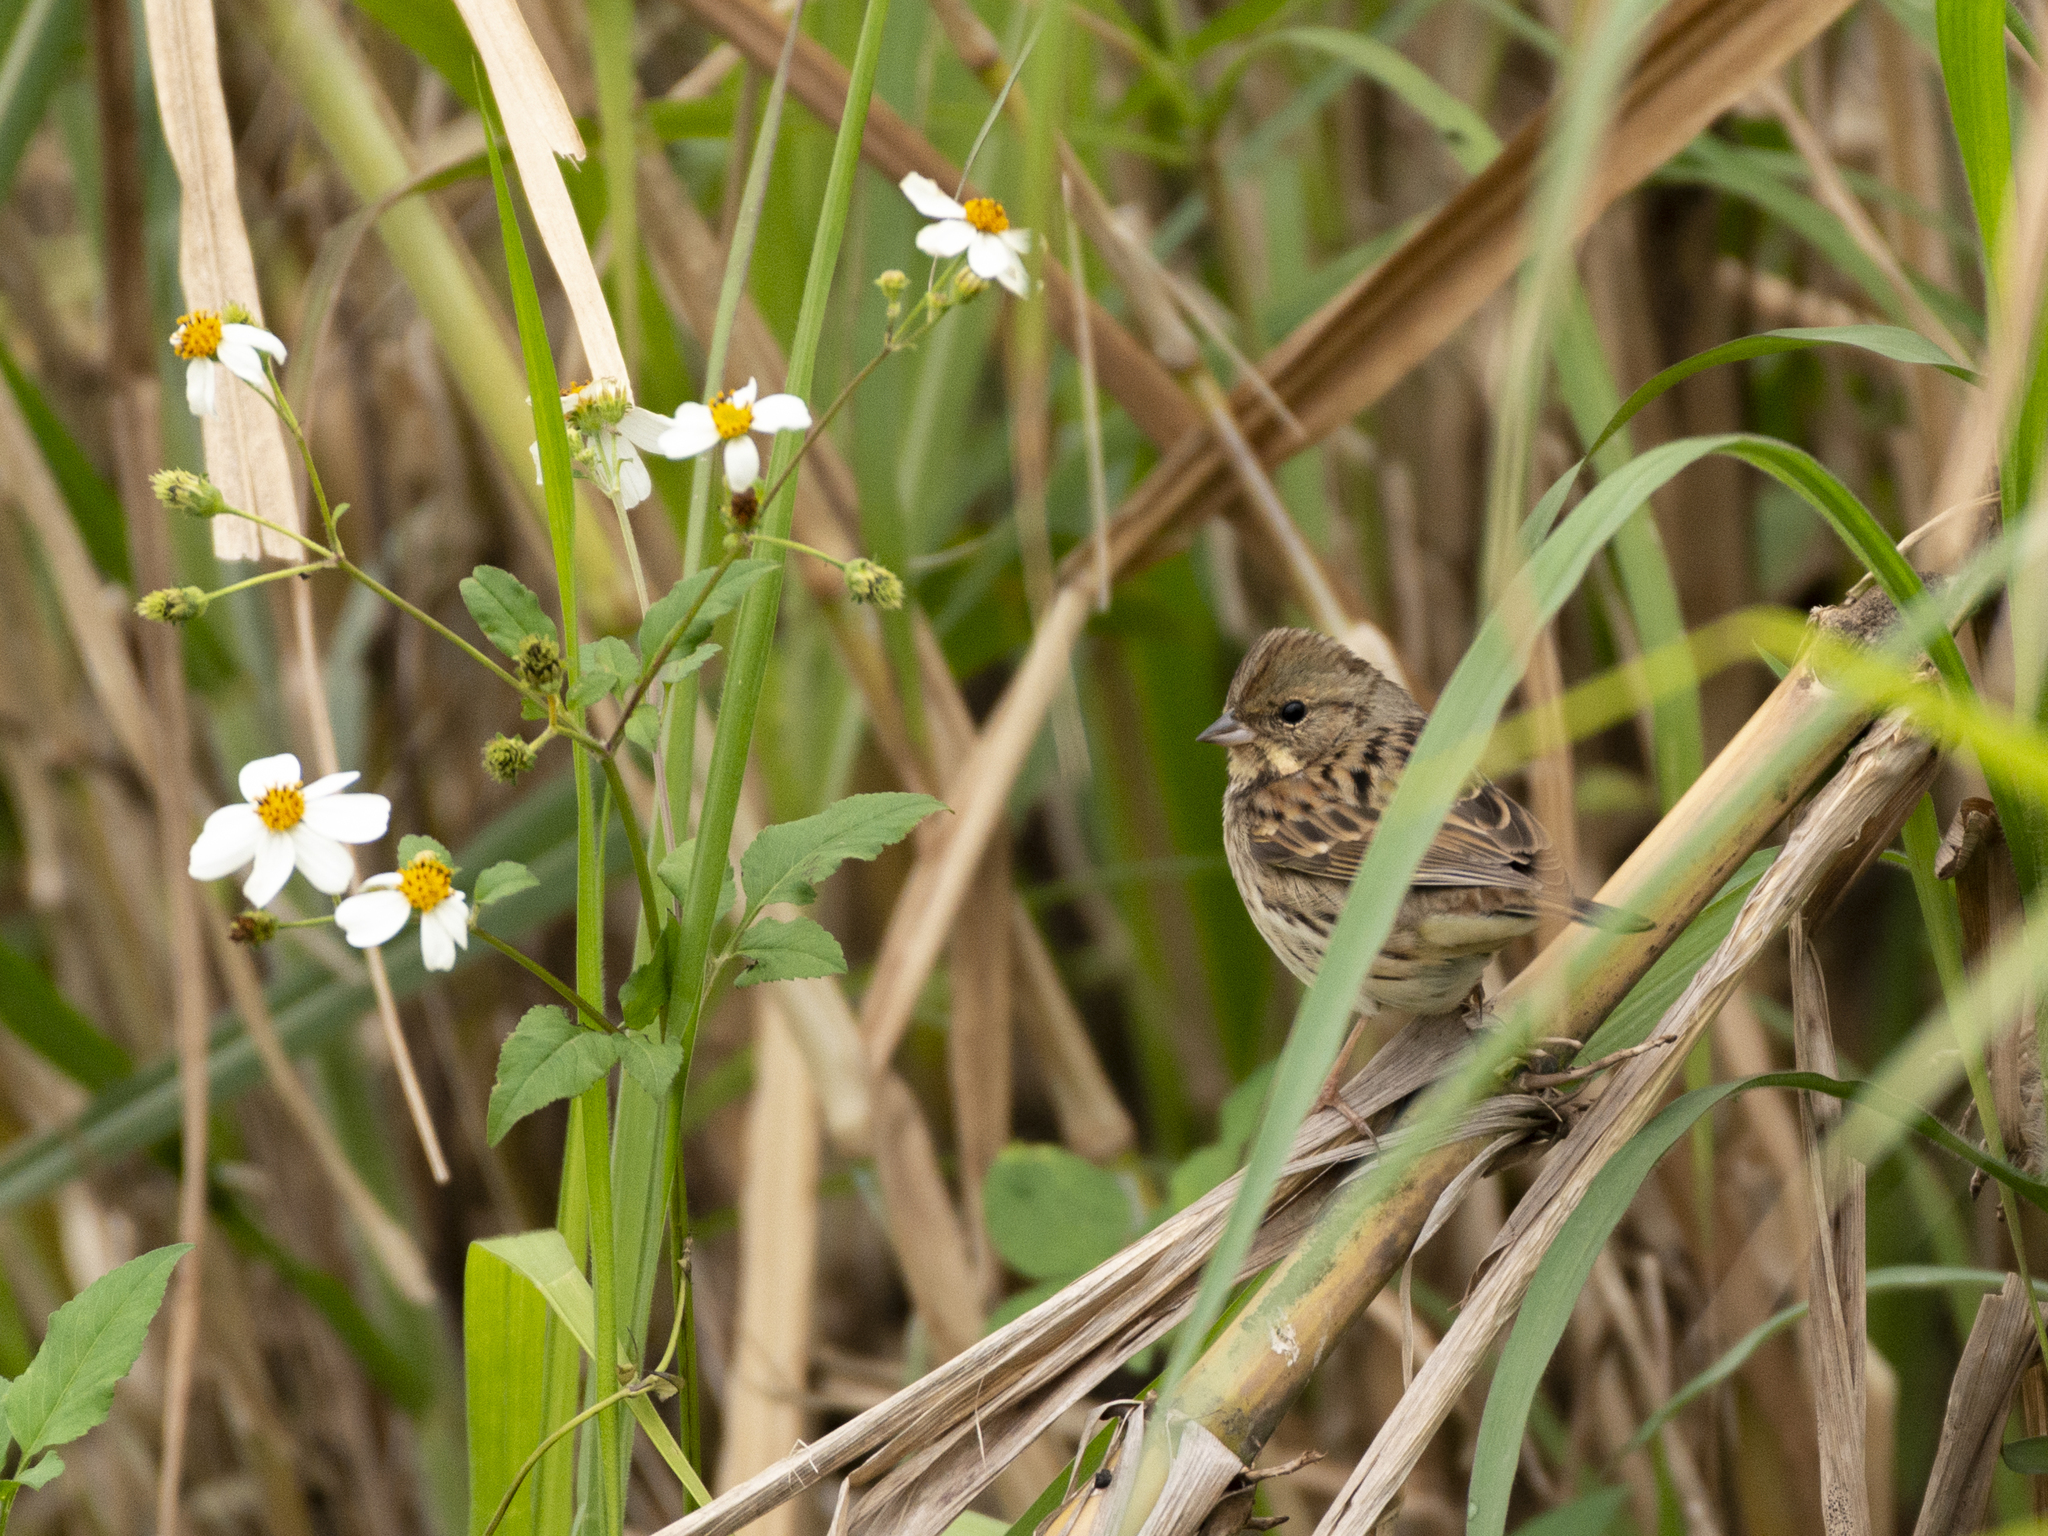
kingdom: Animalia
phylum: Chordata
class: Aves
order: Passeriformes
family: Emberizidae
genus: Emberiza
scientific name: Emberiza spodocephala
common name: Black-faced bunting
